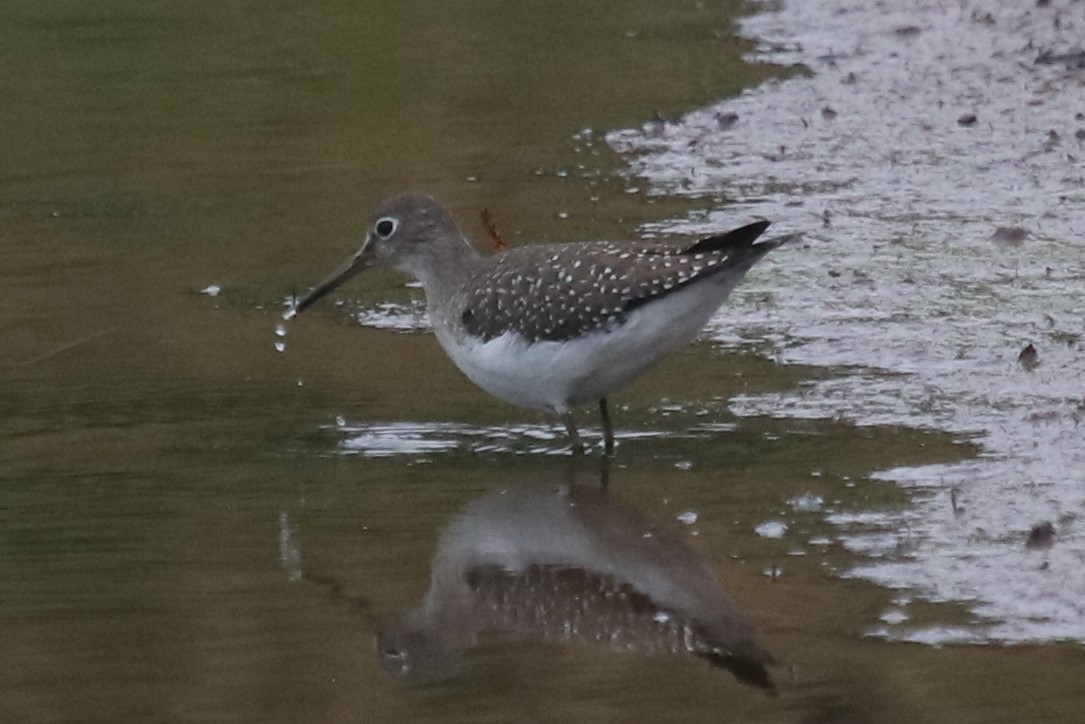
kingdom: Animalia
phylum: Chordata
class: Aves
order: Charadriiformes
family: Scolopacidae
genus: Tringa
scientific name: Tringa solitaria
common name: Solitary sandpiper
